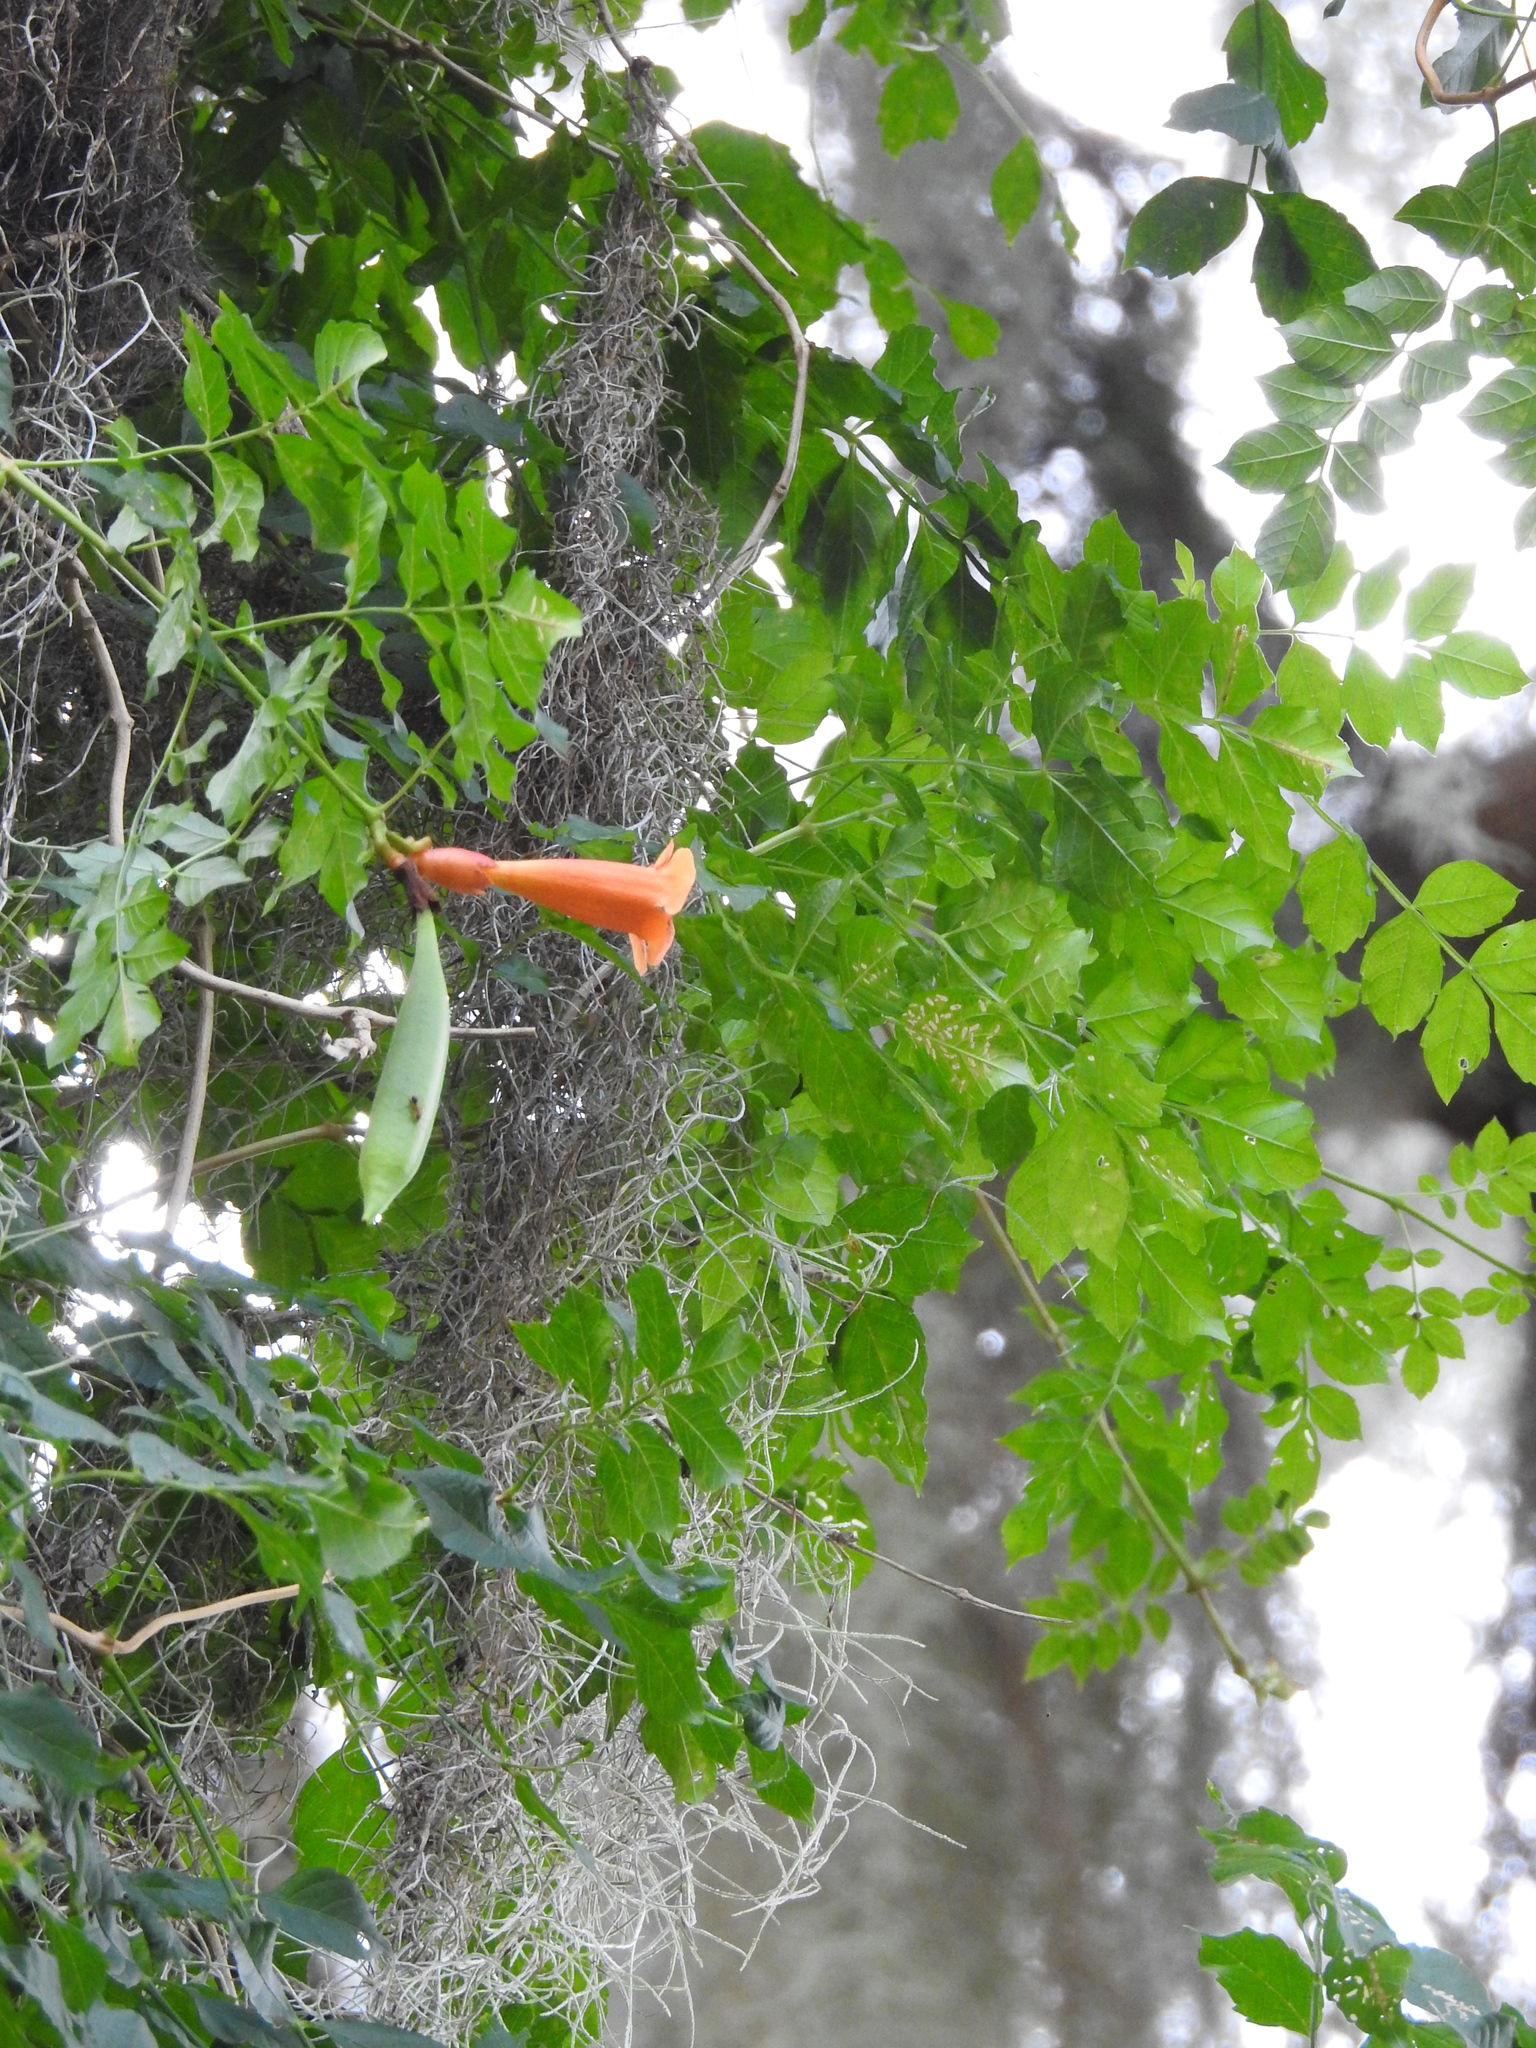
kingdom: Plantae
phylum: Tracheophyta
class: Magnoliopsida
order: Lamiales
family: Bignoniaceae
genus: Campsis
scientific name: Campsis radicans
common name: Trumpet-creeper
